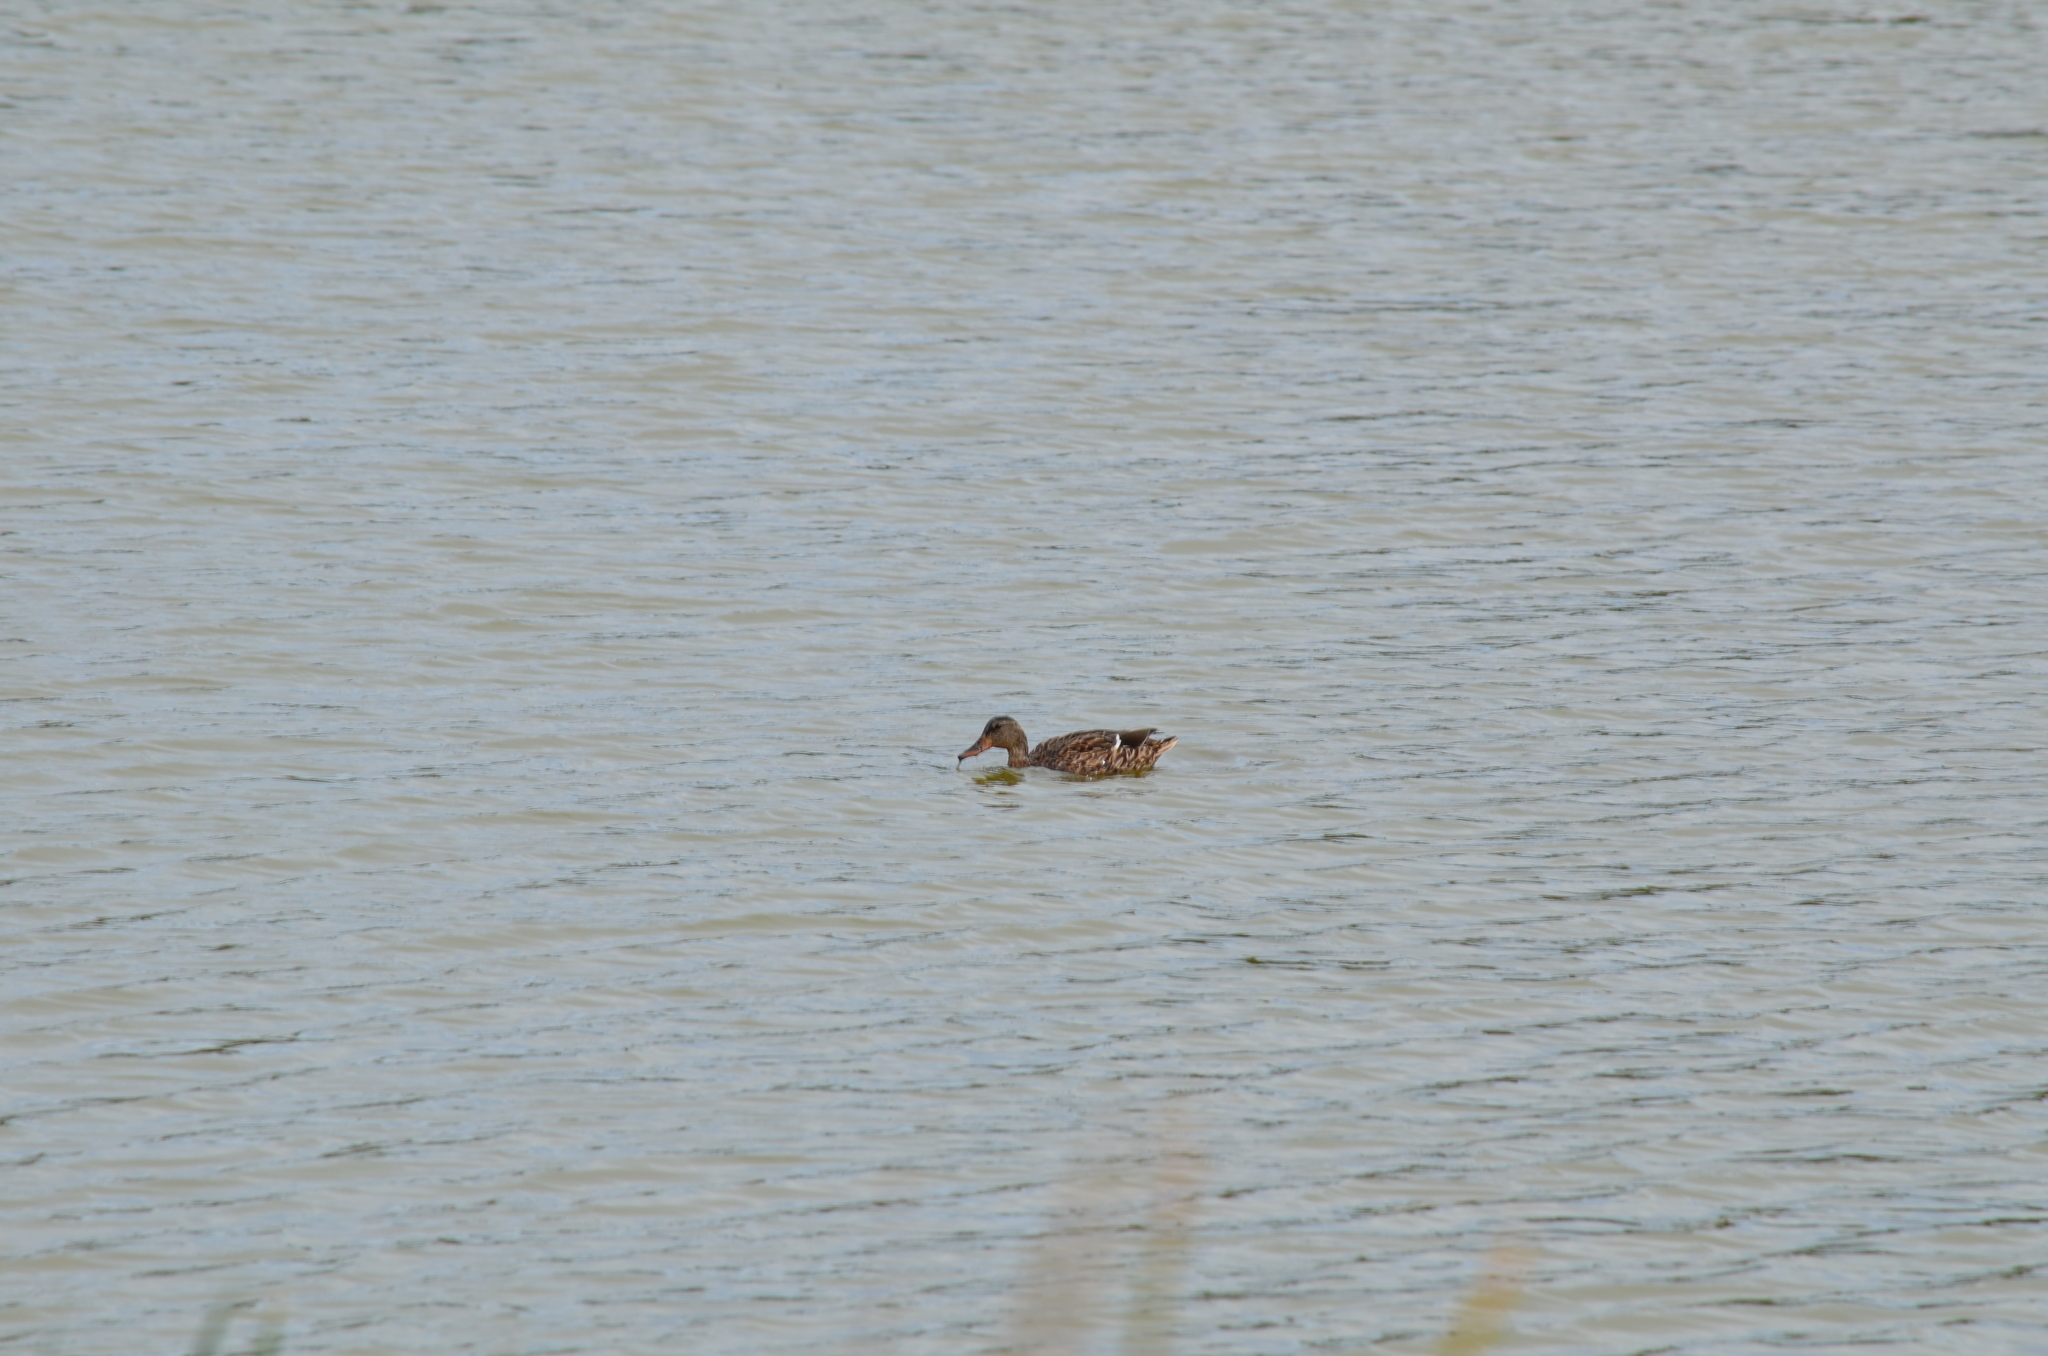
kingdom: Animalia
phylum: Chordata
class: Aves
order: Anseriformes
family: Anatidae
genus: Anas
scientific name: Anas platyrhynchos
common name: Mallard
